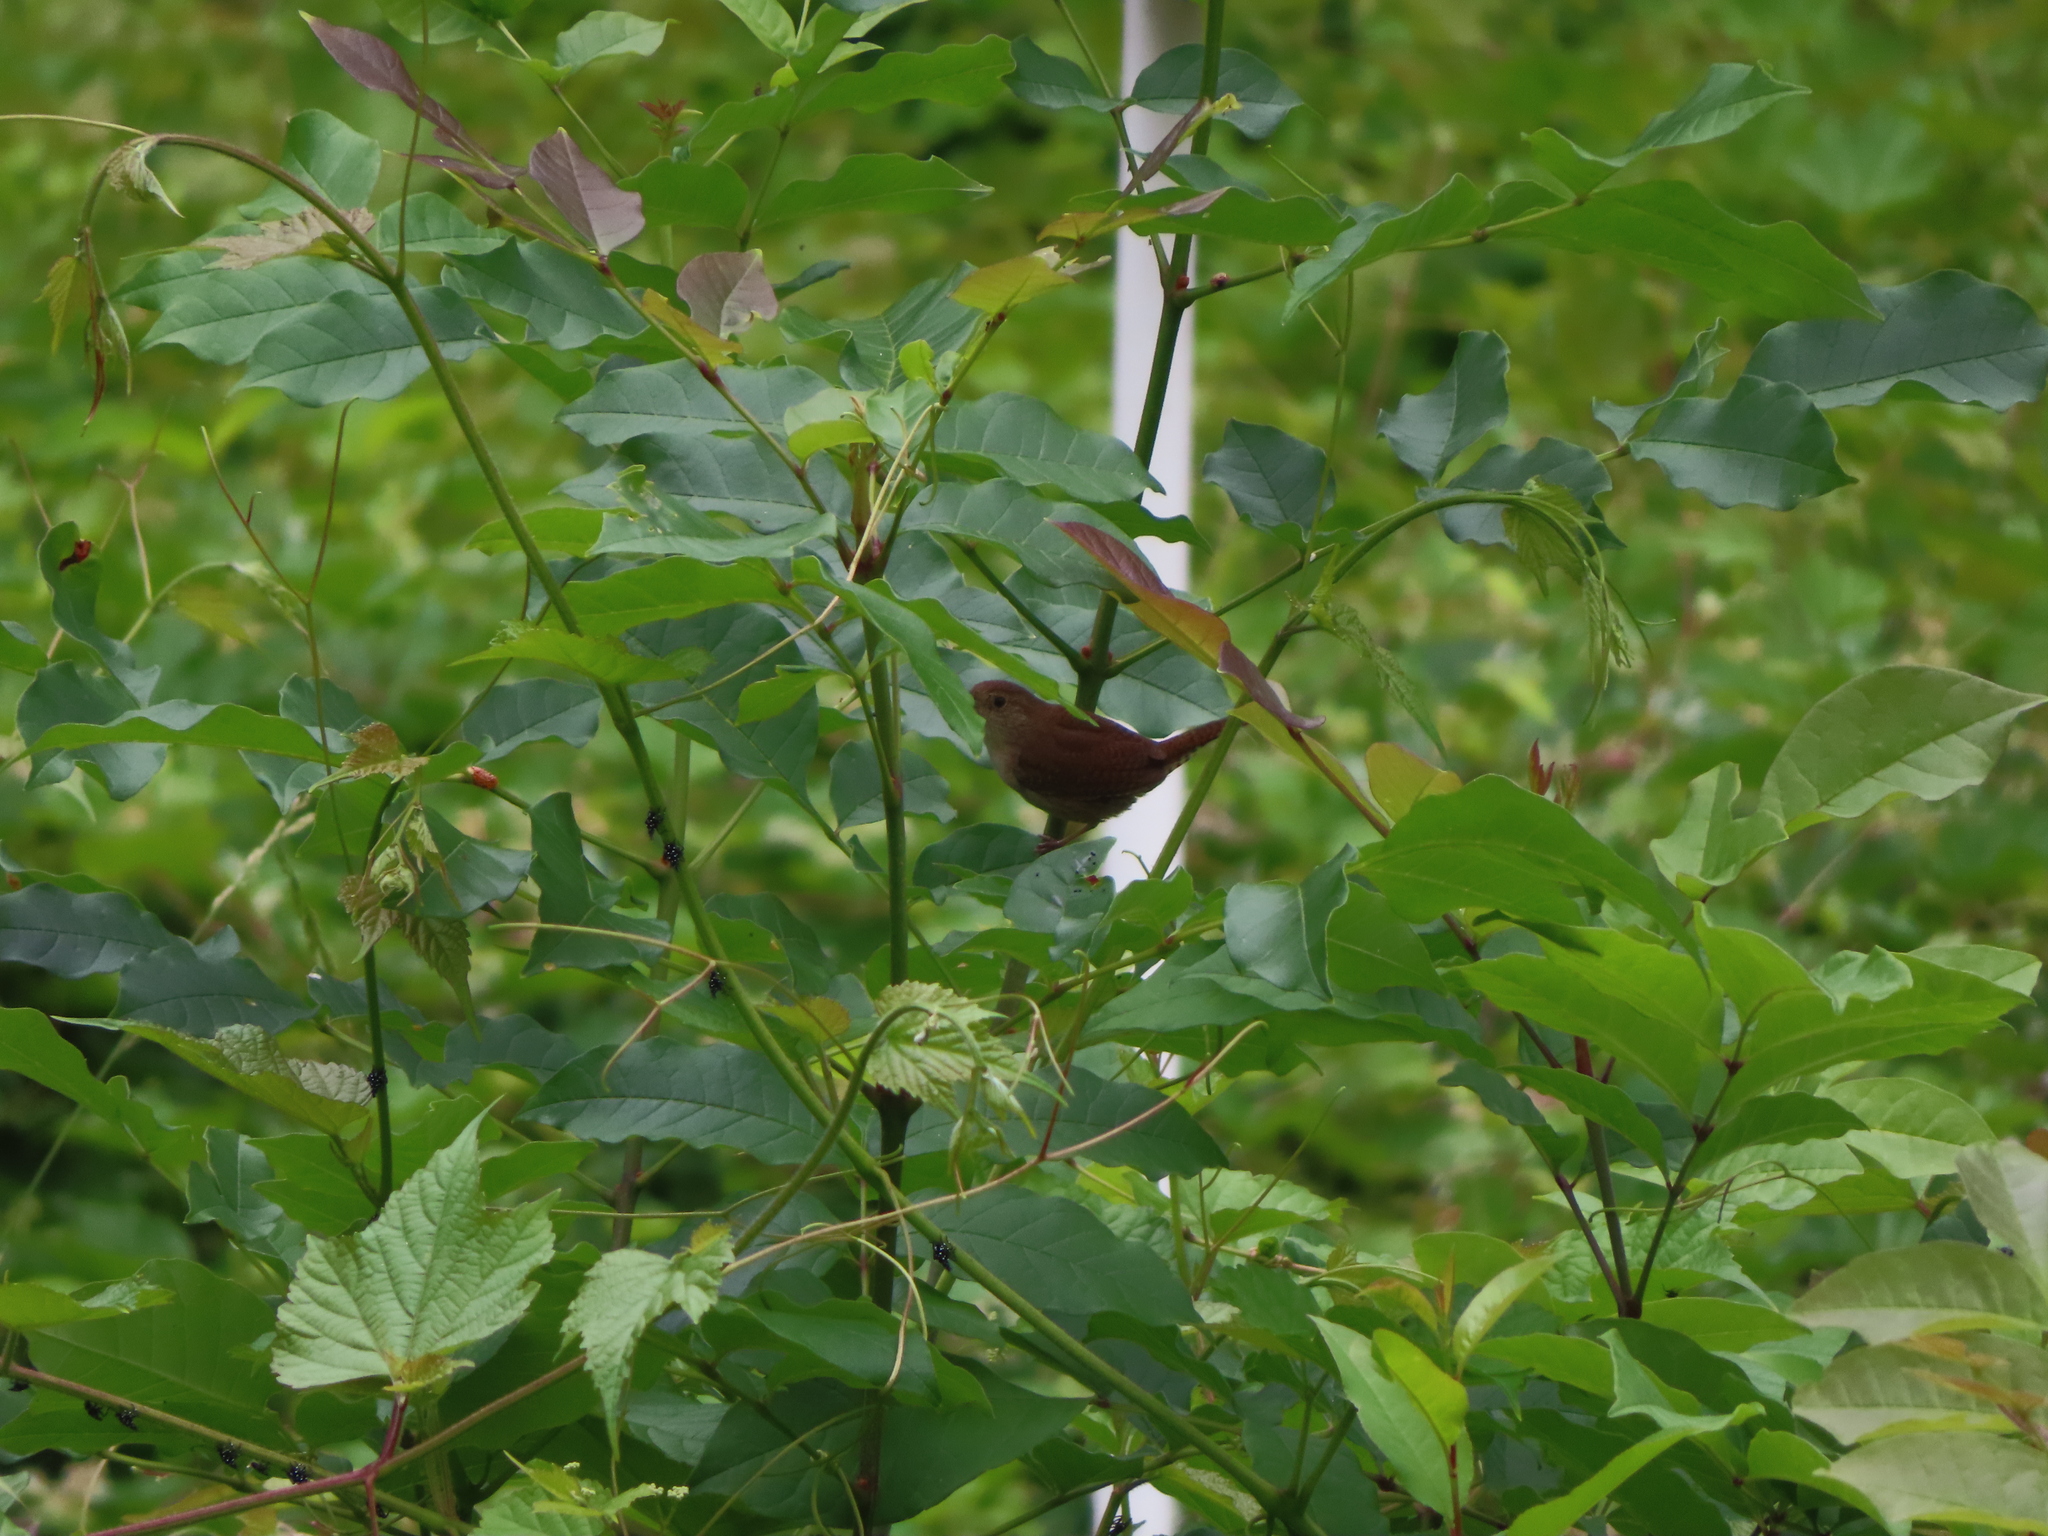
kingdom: Animalia
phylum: Chordata
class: Aves
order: Passeriformes
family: Troglodytidae
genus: Troglodytes
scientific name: Troglodytes aedon
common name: House wren
